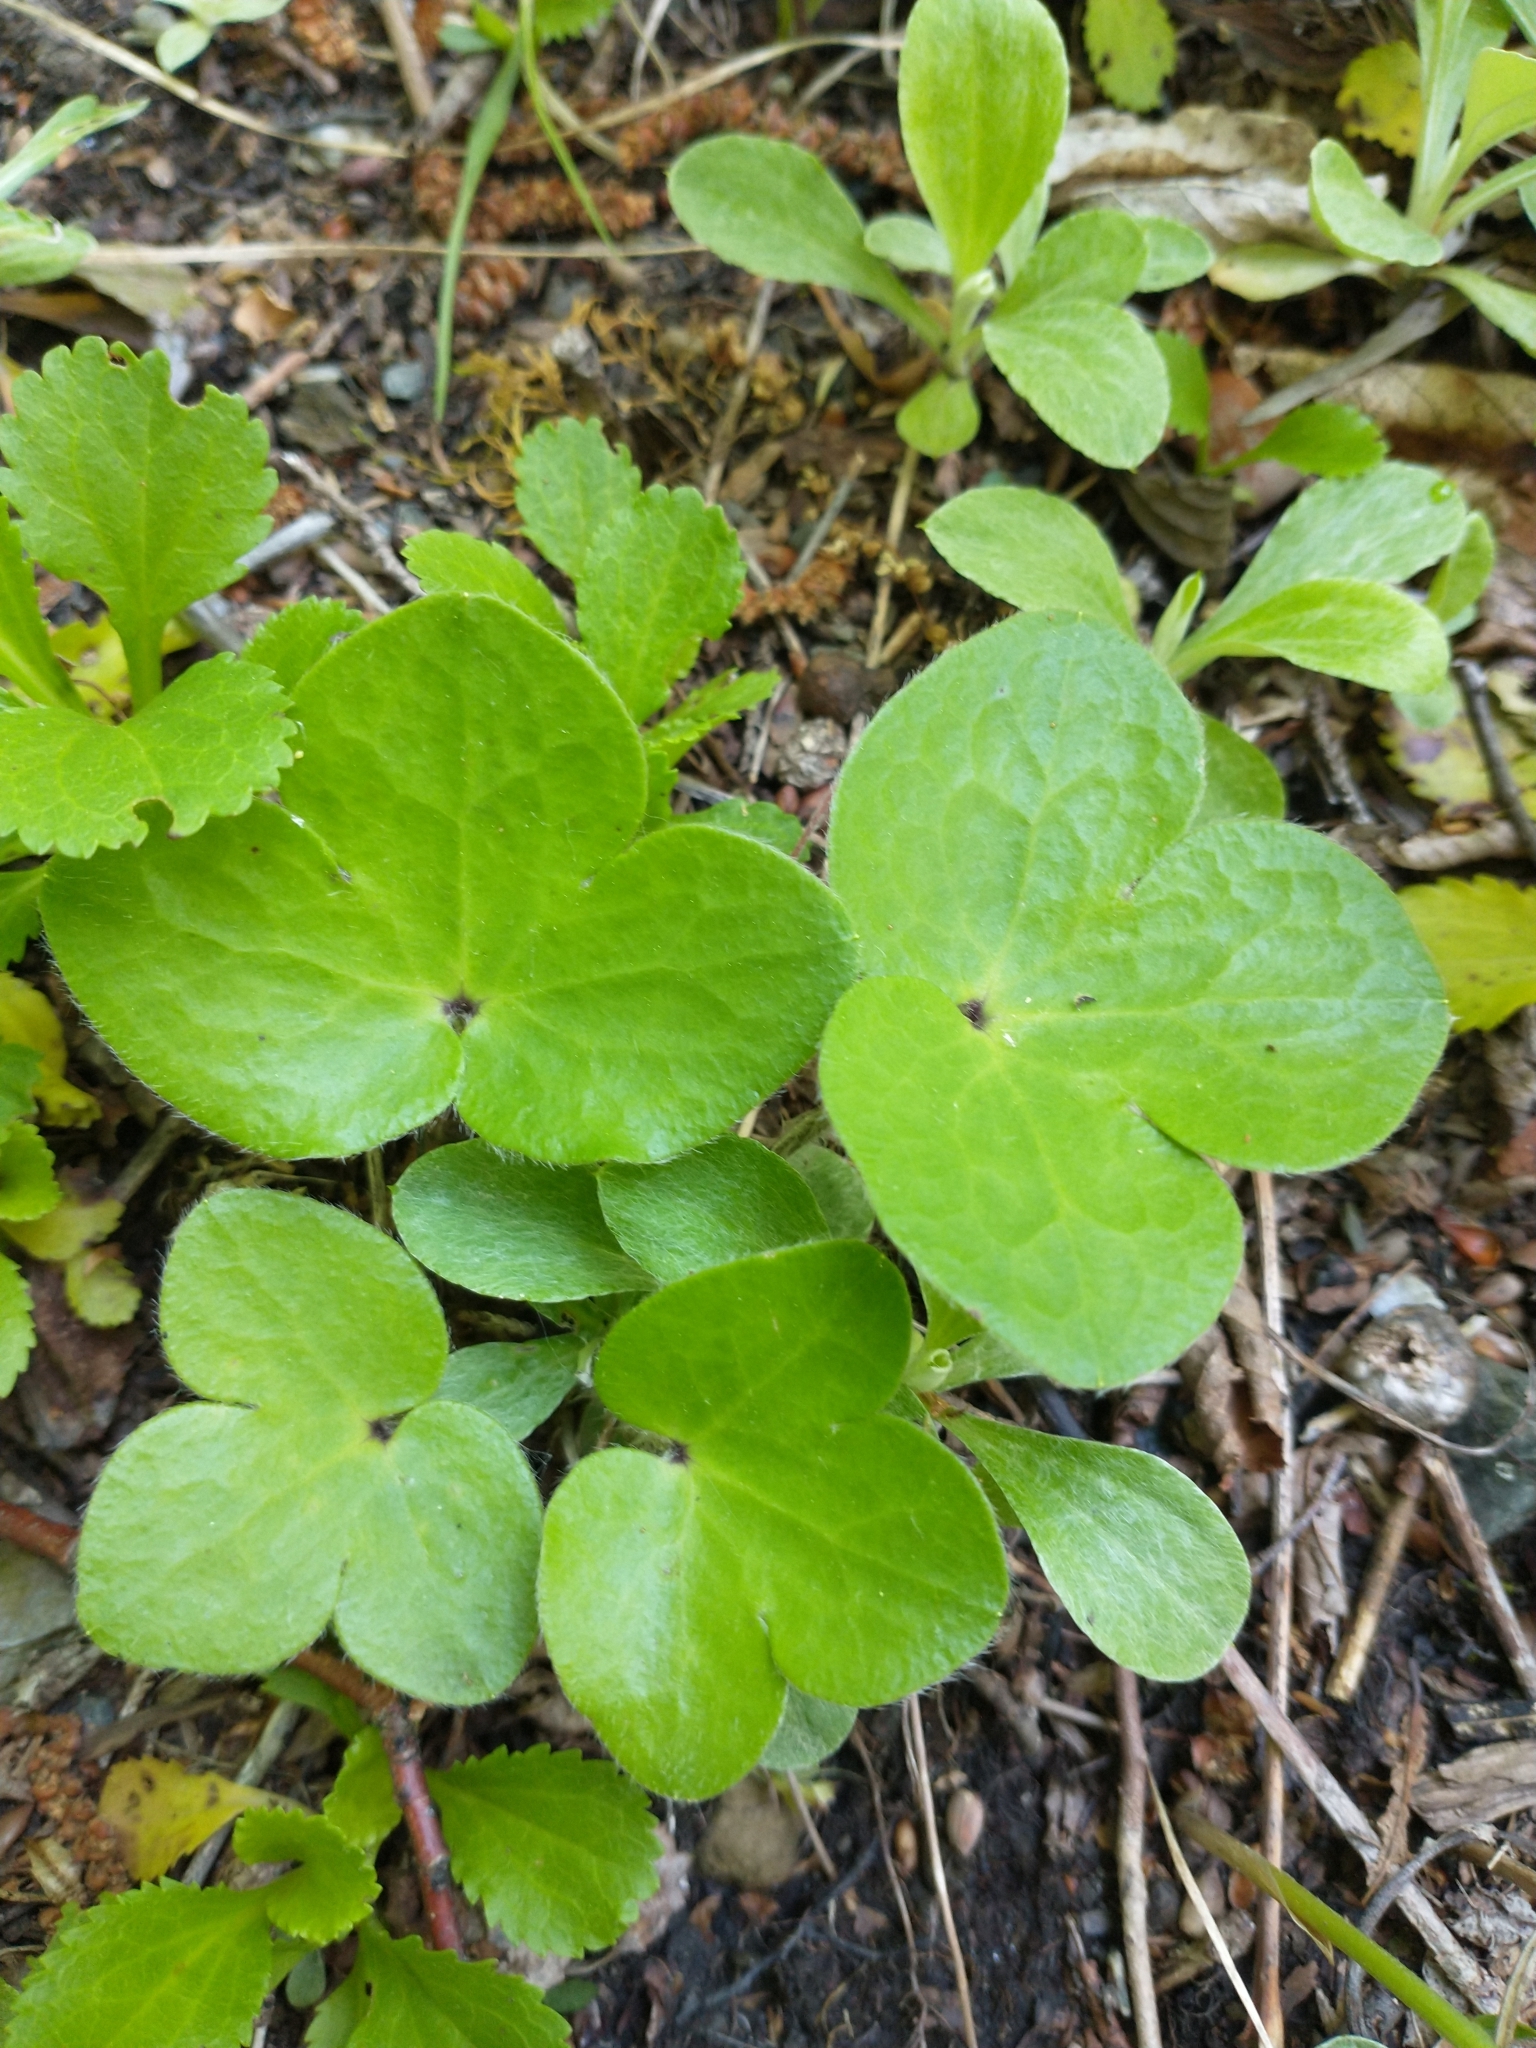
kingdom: Plantae
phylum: Tracheophyta
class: Magnoliopsida
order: Ranunculales
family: Ranunculaceae
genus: Hepatica
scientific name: Hepatica americana
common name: American hepatica
